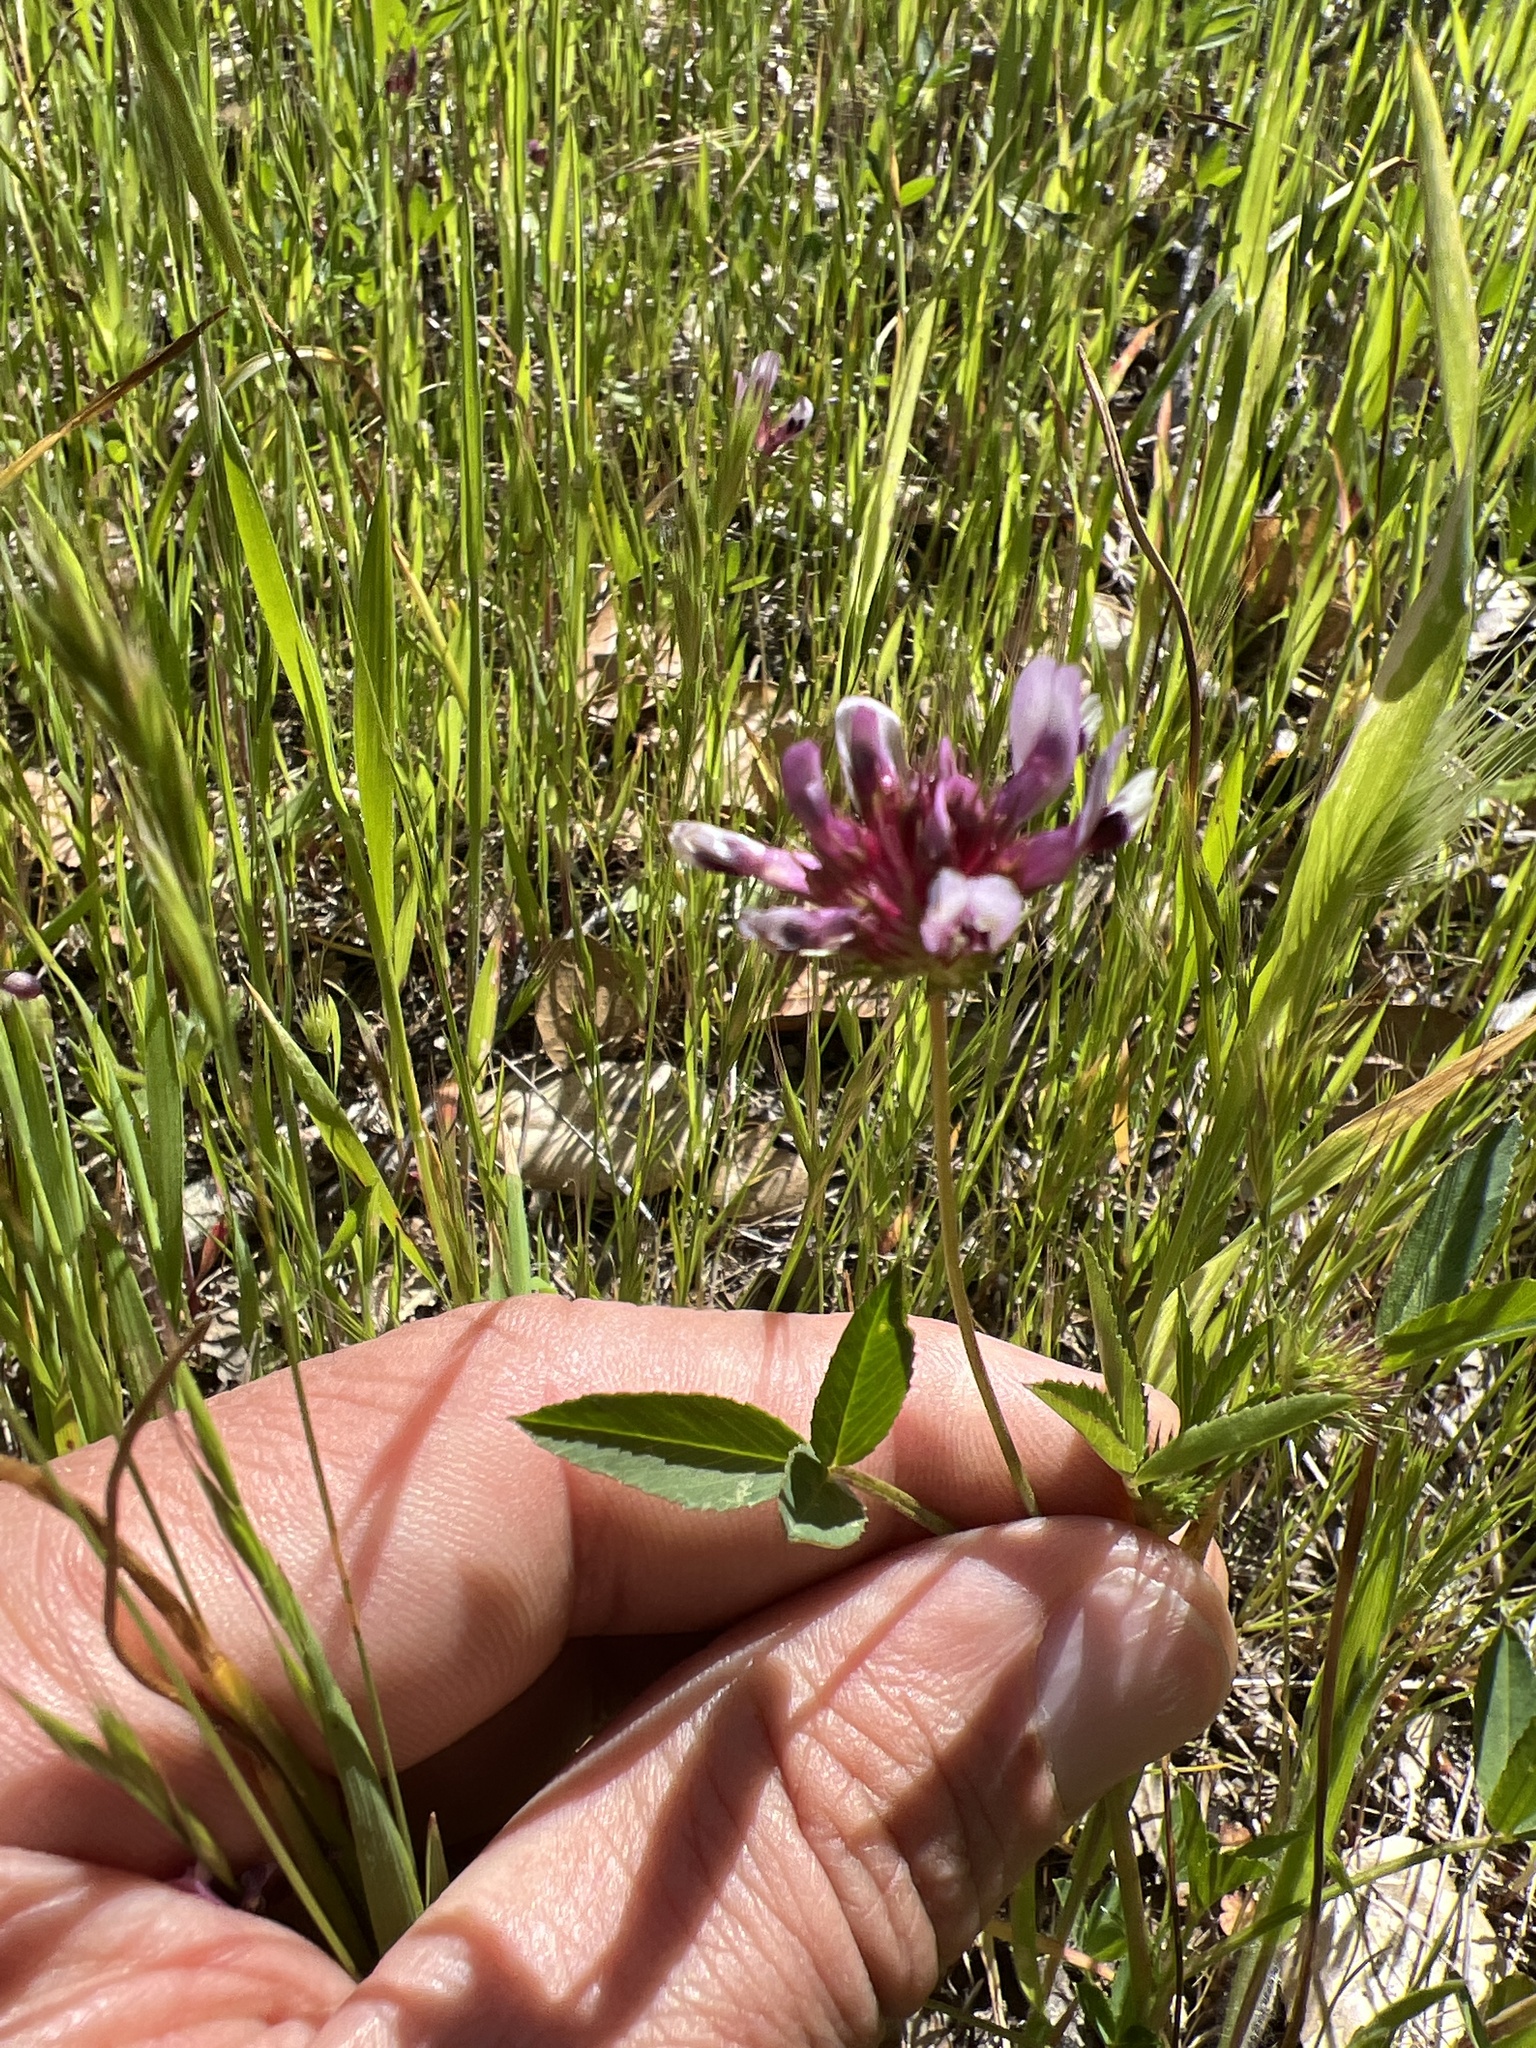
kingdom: Plantae
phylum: Tracheophyta
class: Magnoliopsida
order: Fabales
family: Fabaceae
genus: Trifolium
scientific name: Trifolium willdenovii
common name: Tomcat clover
